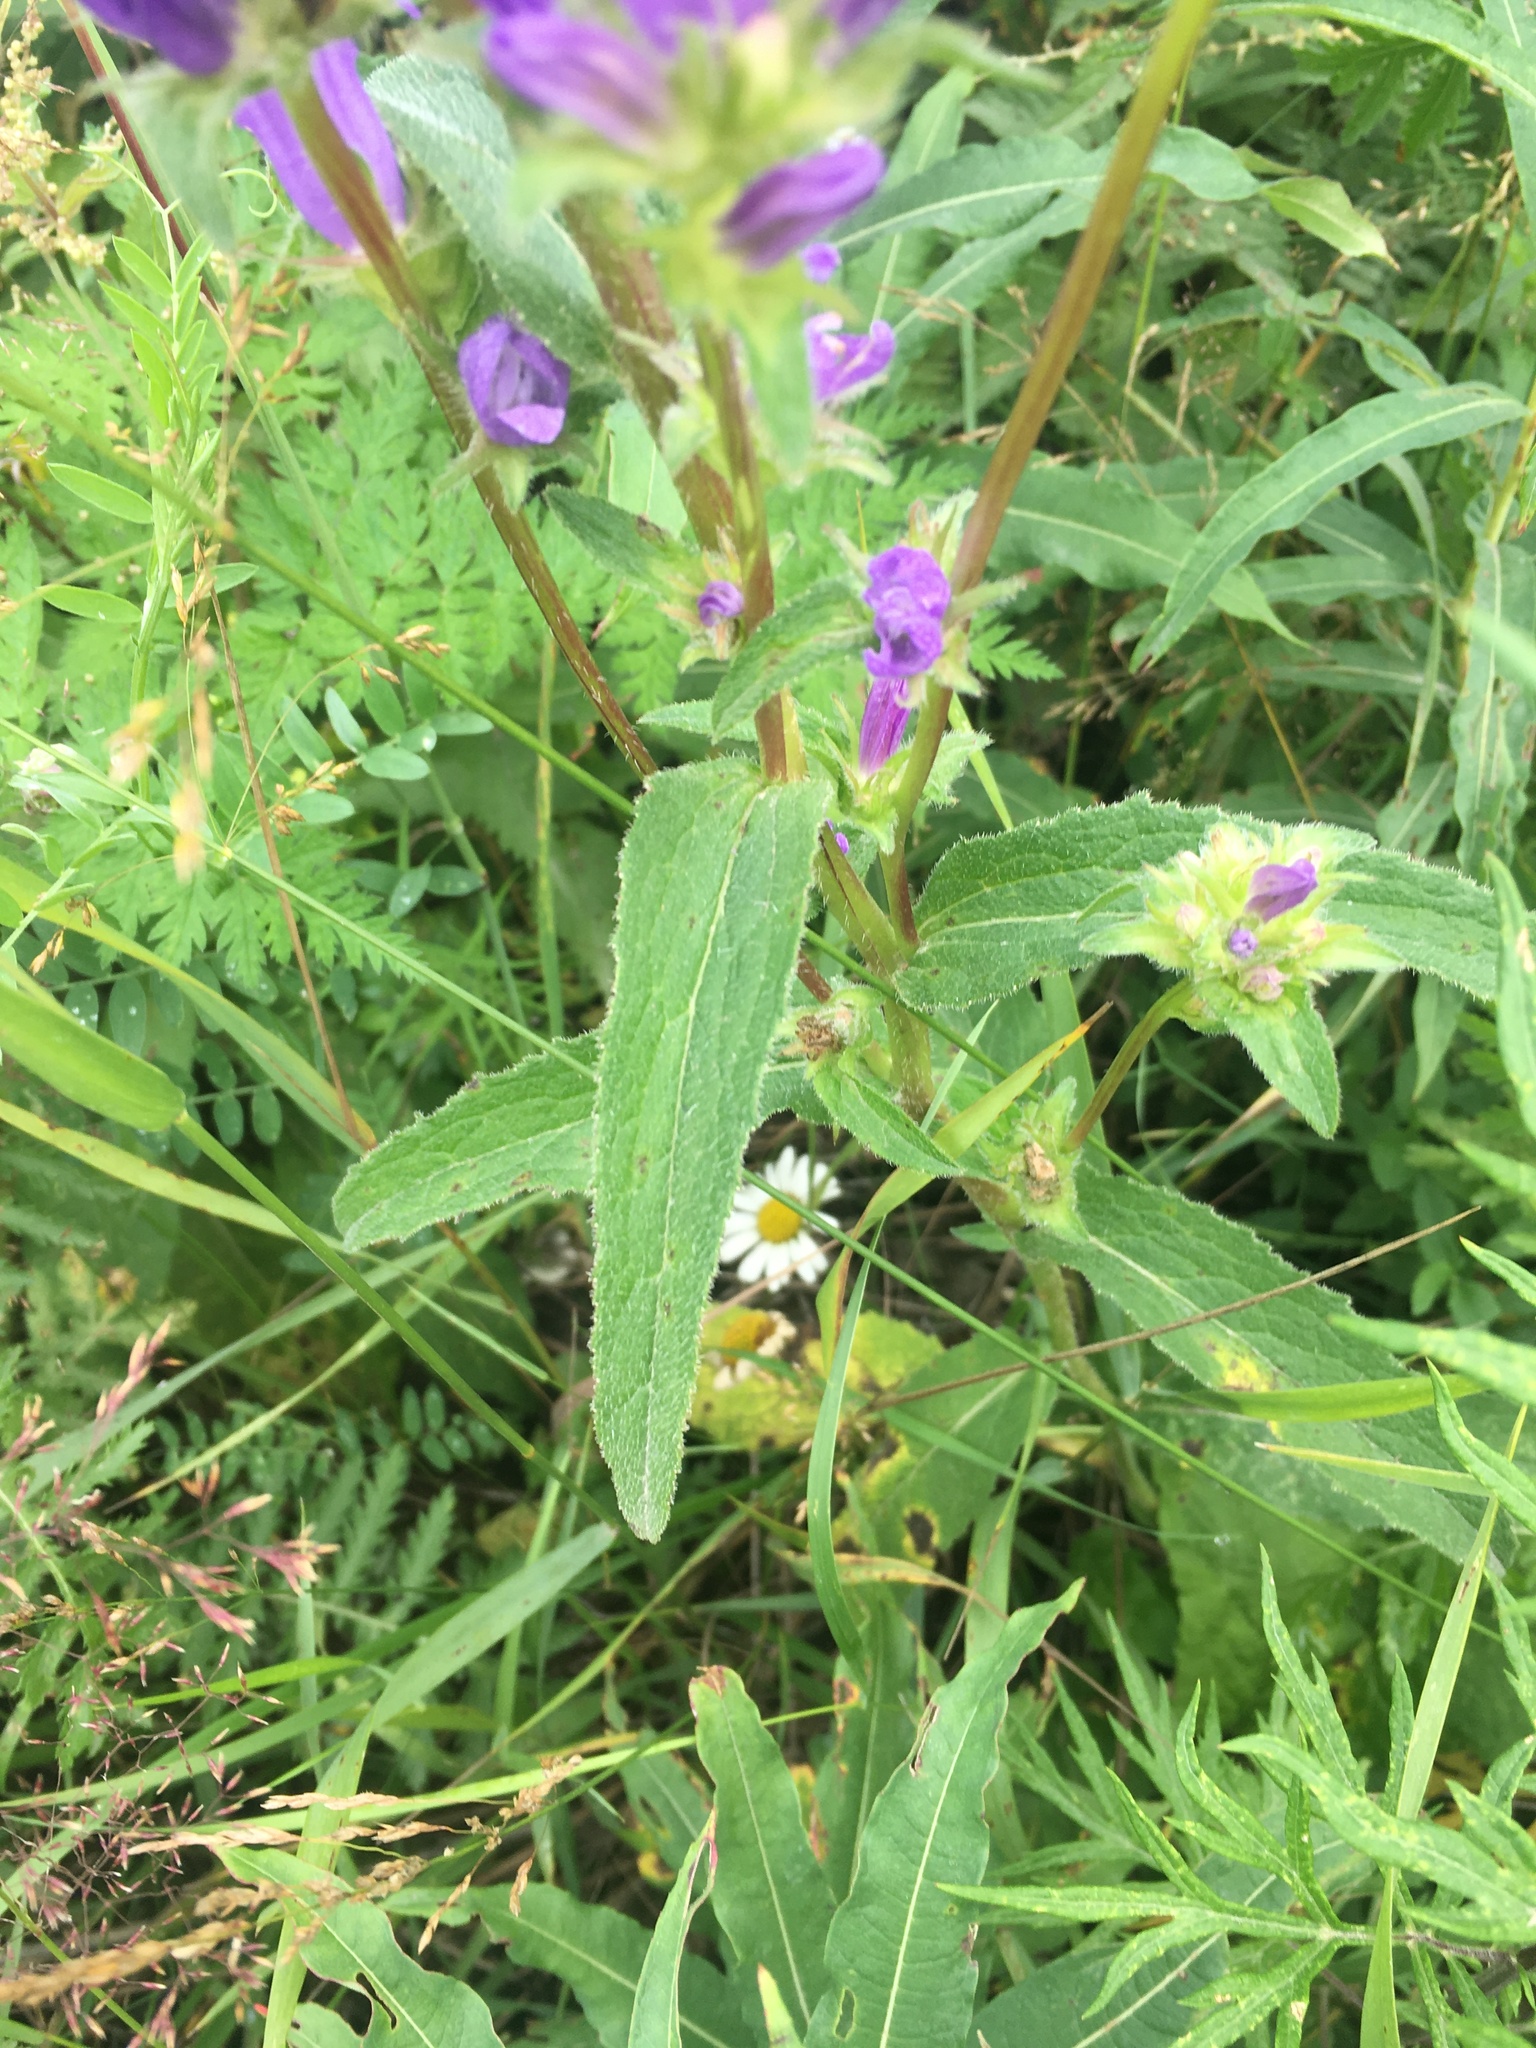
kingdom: Plantae
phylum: Tracheophyta
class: Magnoliopsida
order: Asterales
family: Campanulaceae
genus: Campanula
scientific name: Campanula glomerata
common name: Clustered bellflower
